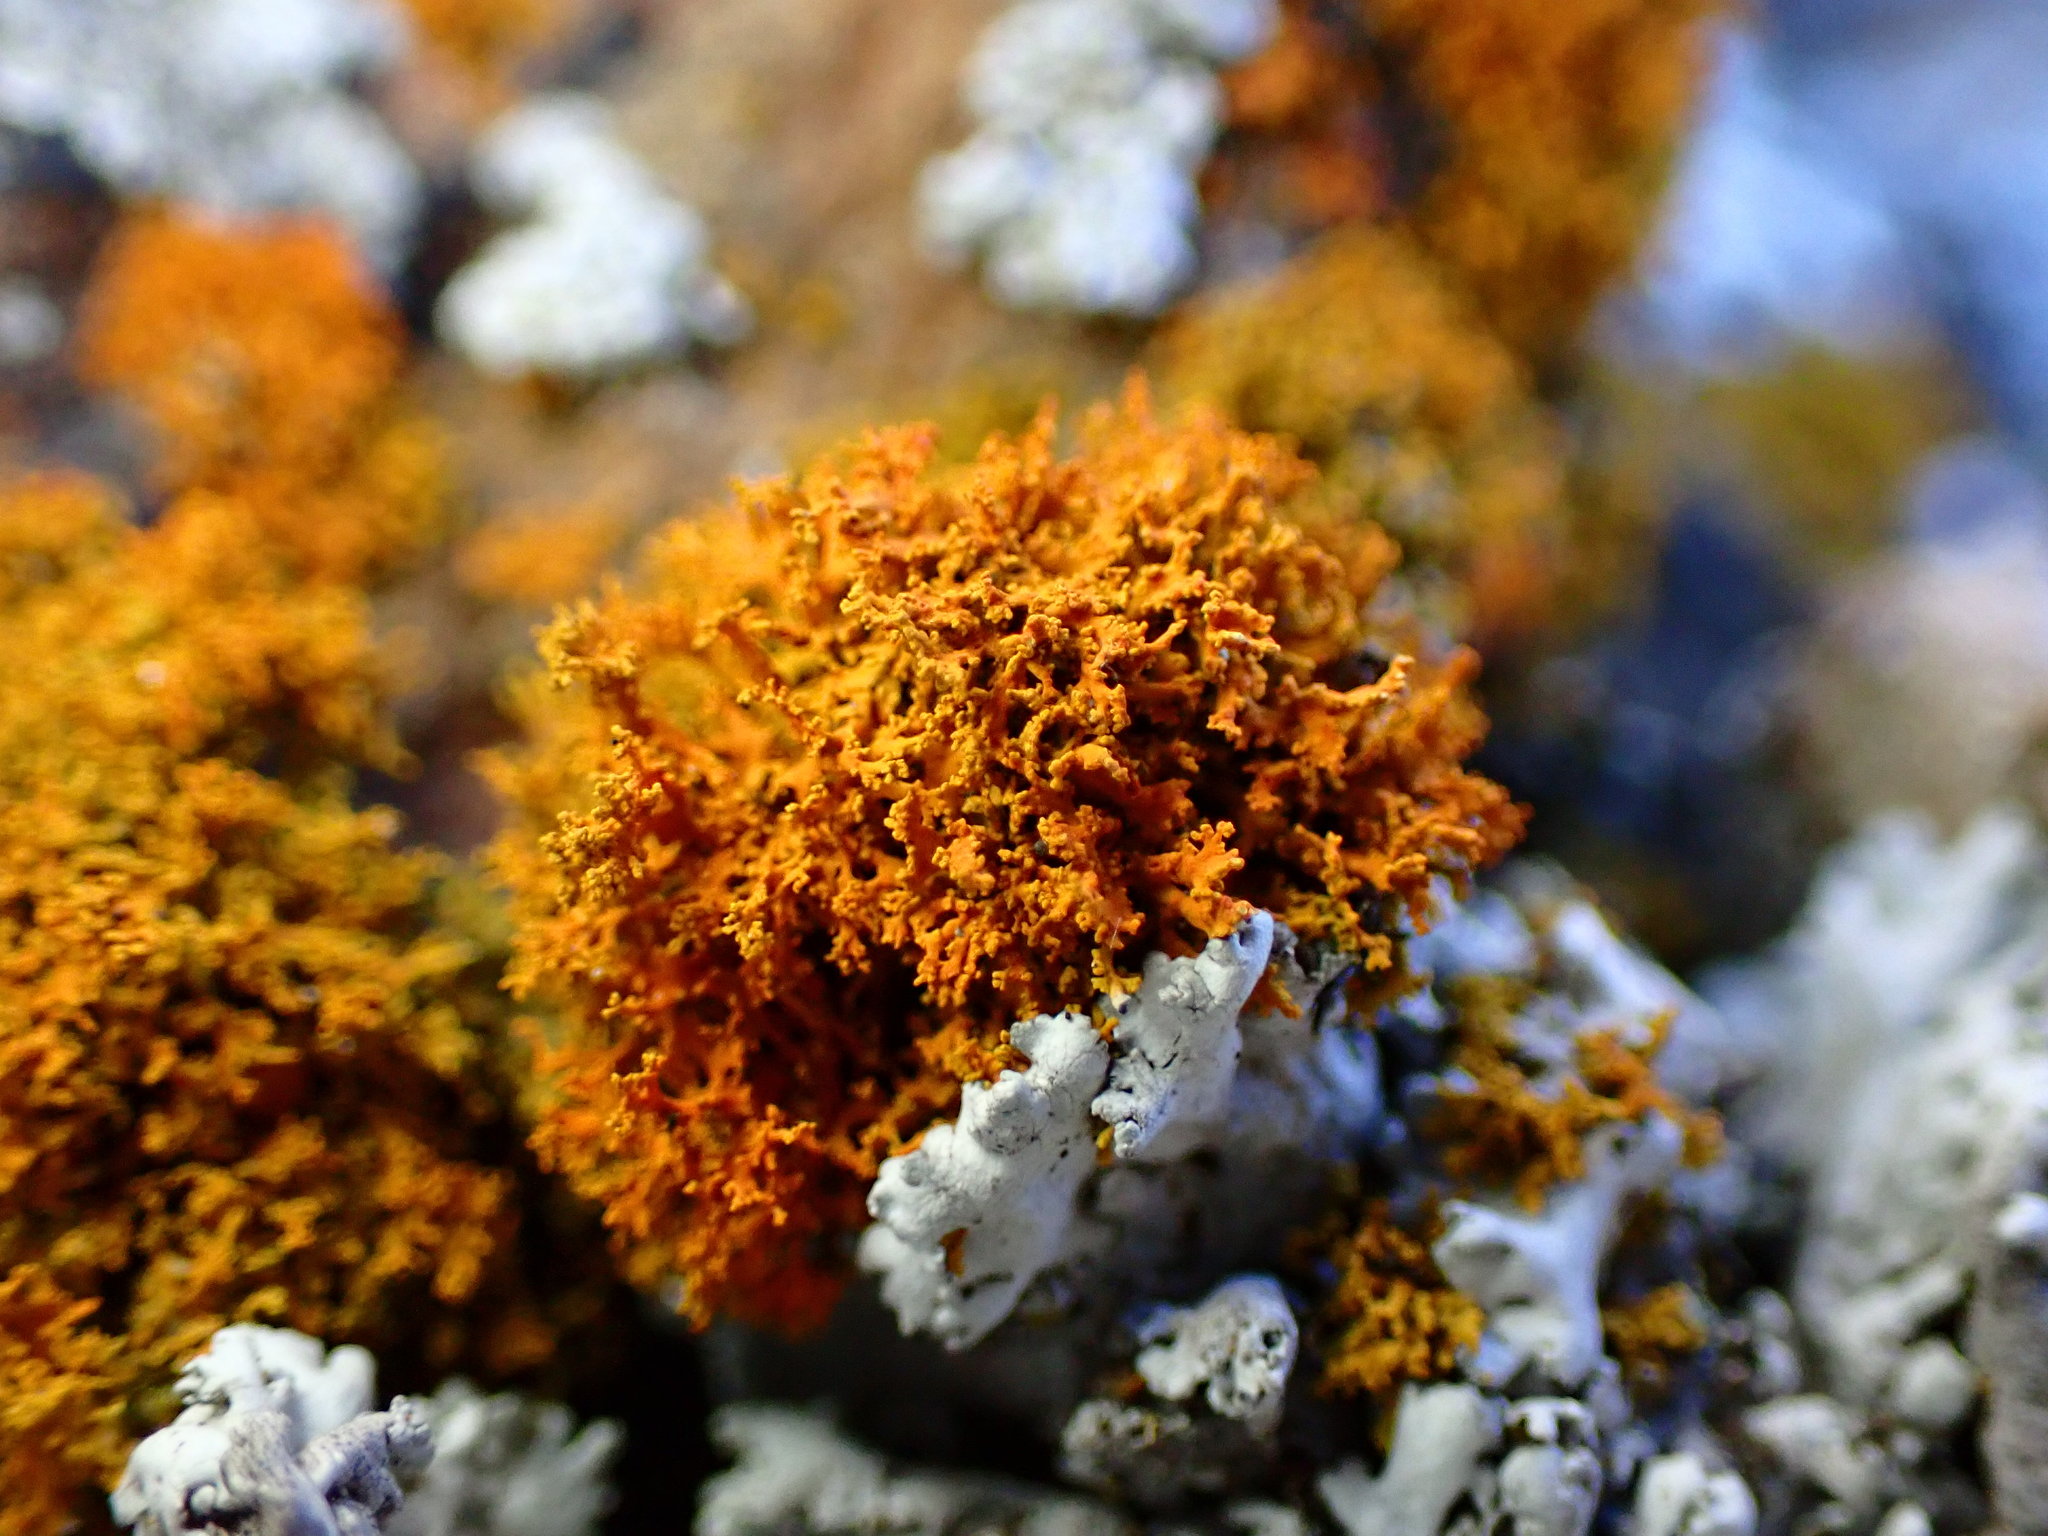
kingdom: Fungi
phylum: Ascomycota
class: Lecanoromycetes
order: Teloschistales
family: Teloschistaceae
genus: Polycauliona
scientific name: Polycauliona candelaria
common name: Shrubby sunburst lichen
